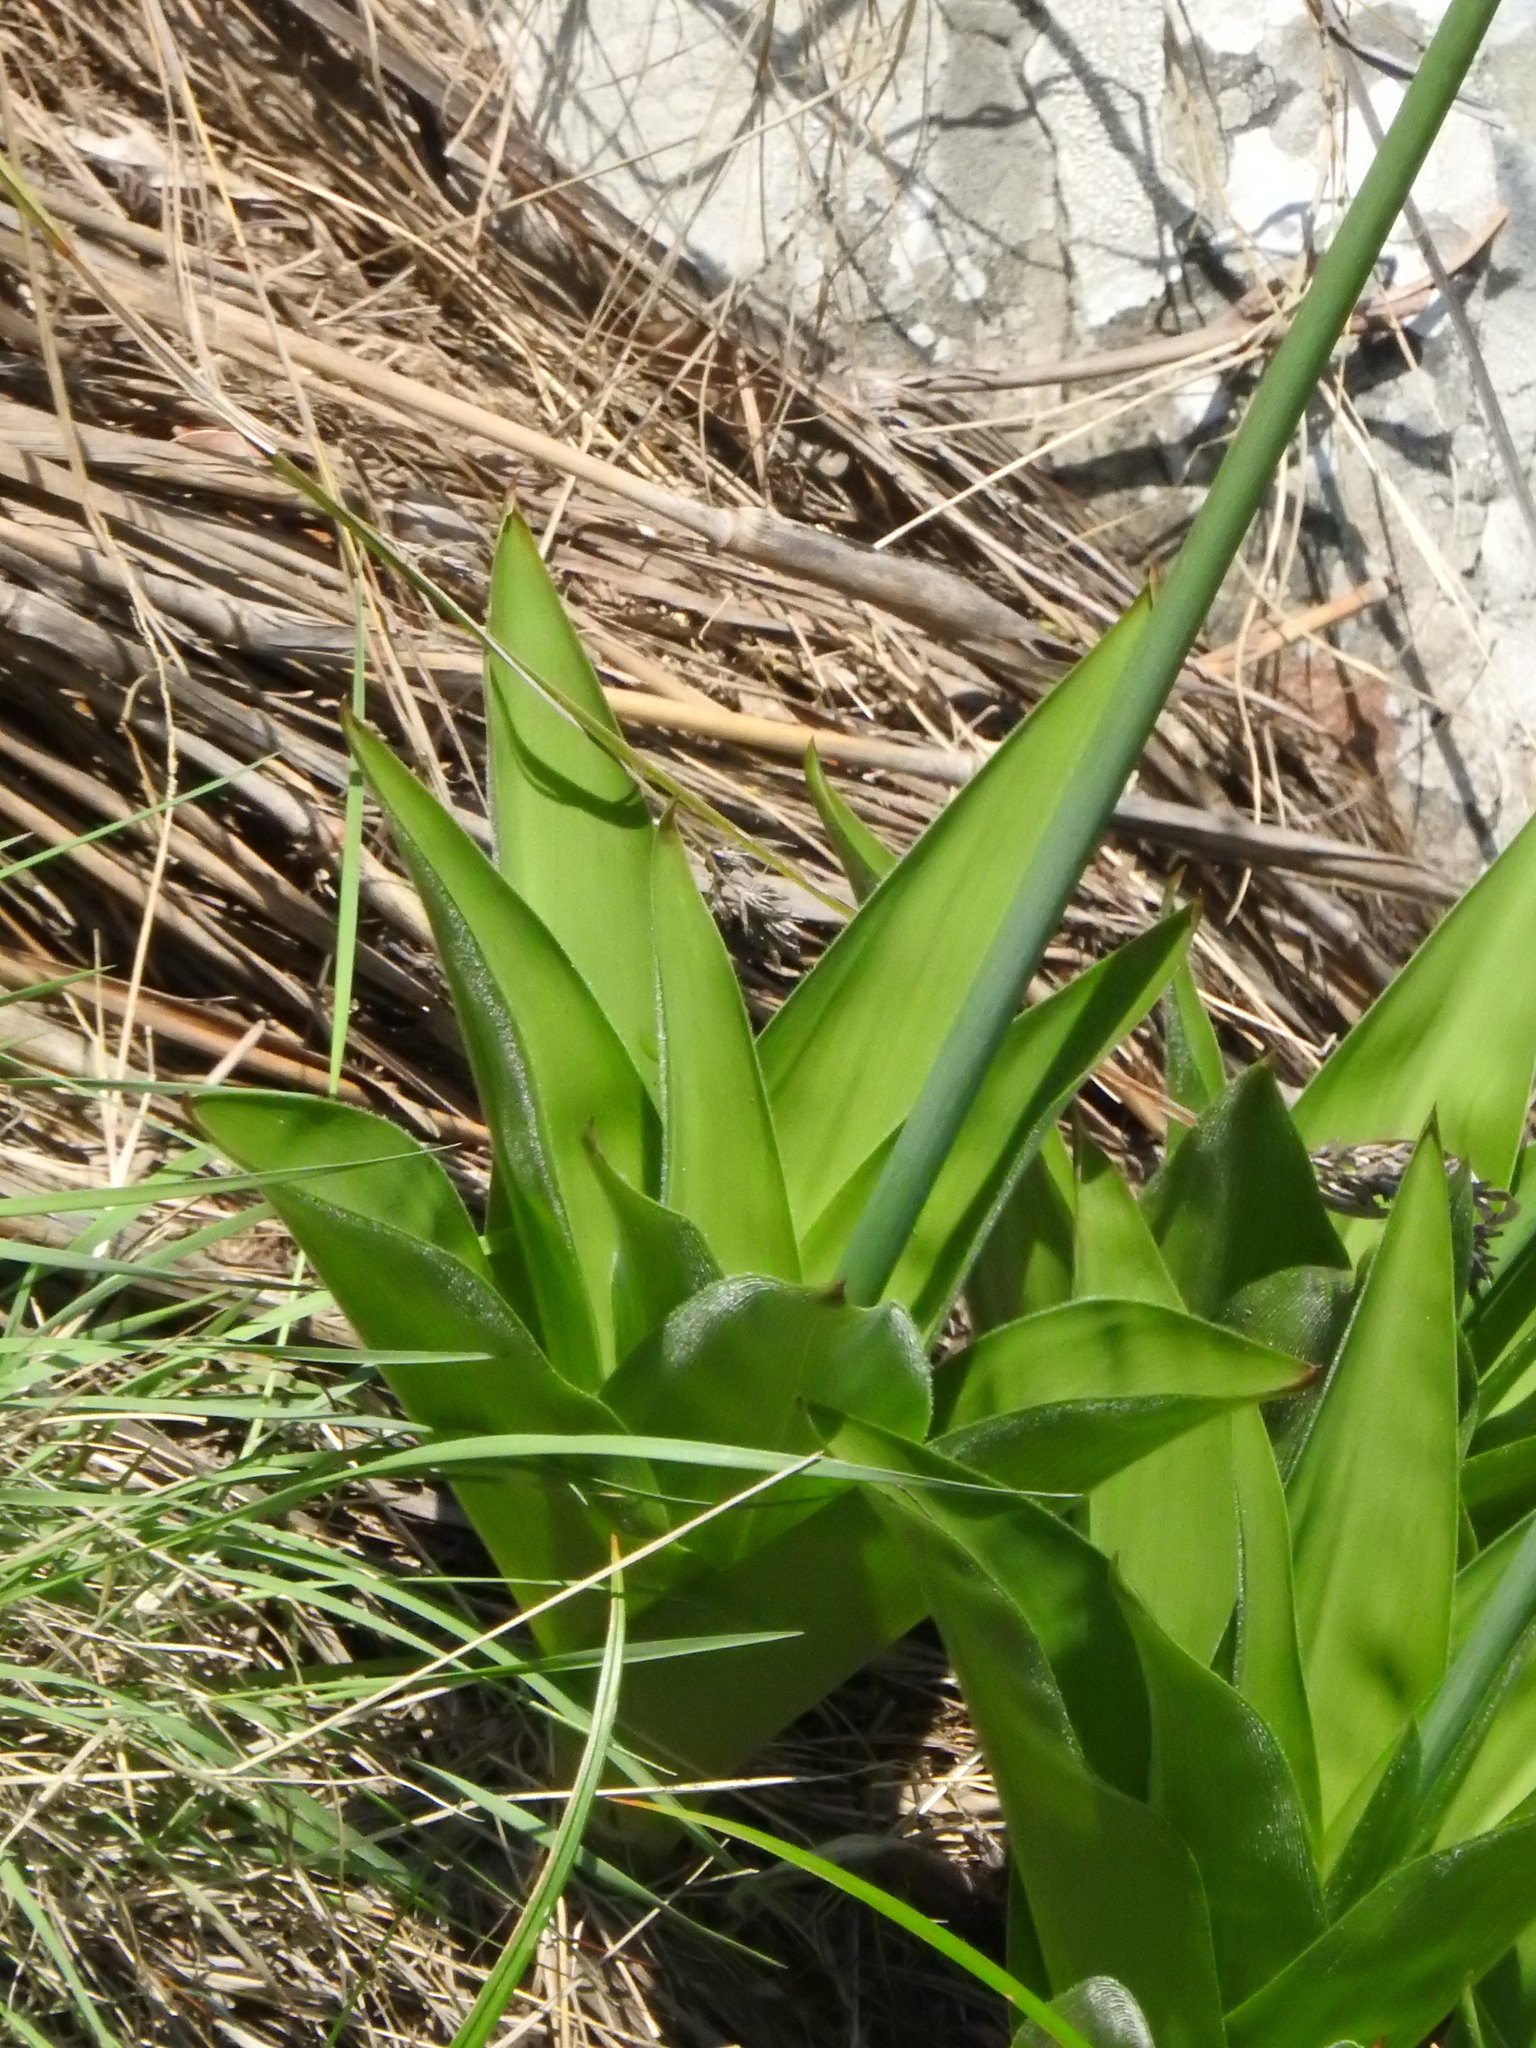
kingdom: Plantae
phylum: Tracheophyta
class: Liliopsida
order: Asparagales
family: Asparagaceae
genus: Merwilla
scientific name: Merwilla plumbea
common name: Blue-squill
